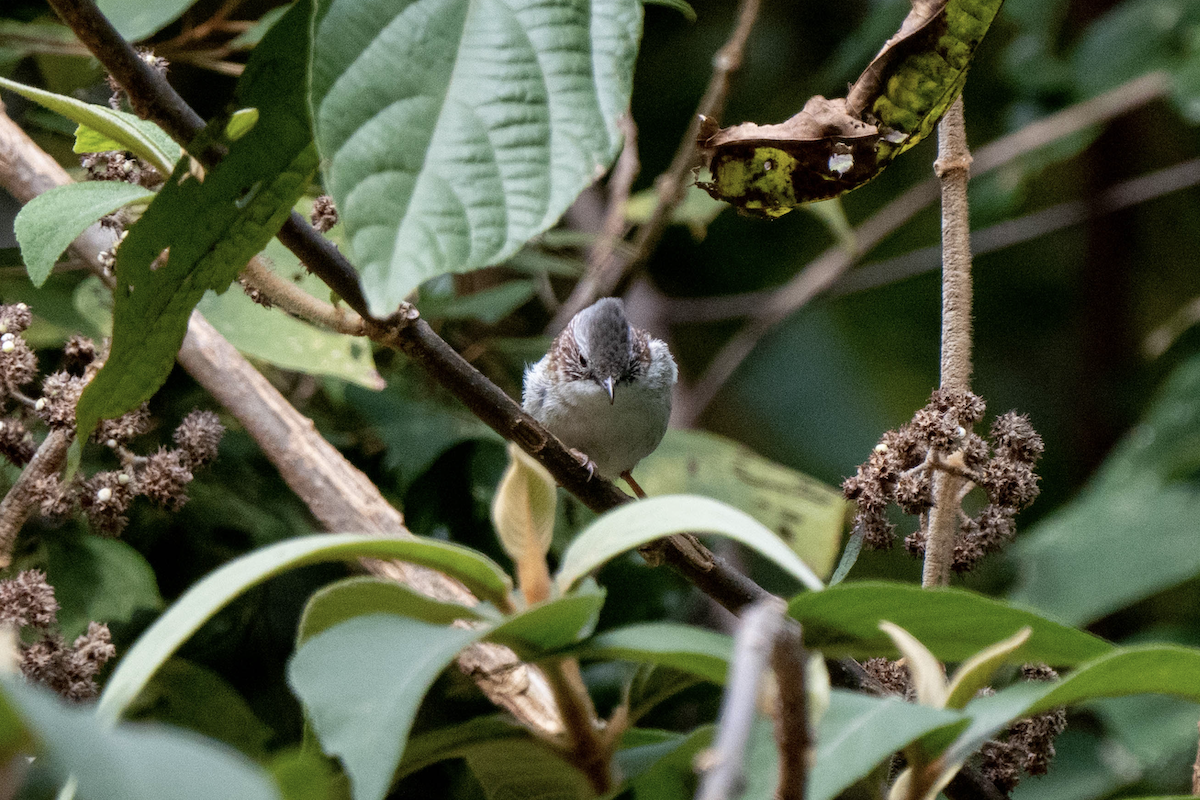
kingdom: Animalia
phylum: Chordata
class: Aves
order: Passeriformes
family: Zosteropidae
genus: Yuhina
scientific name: Yuhina torqueola
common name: Indochinese yuhina
